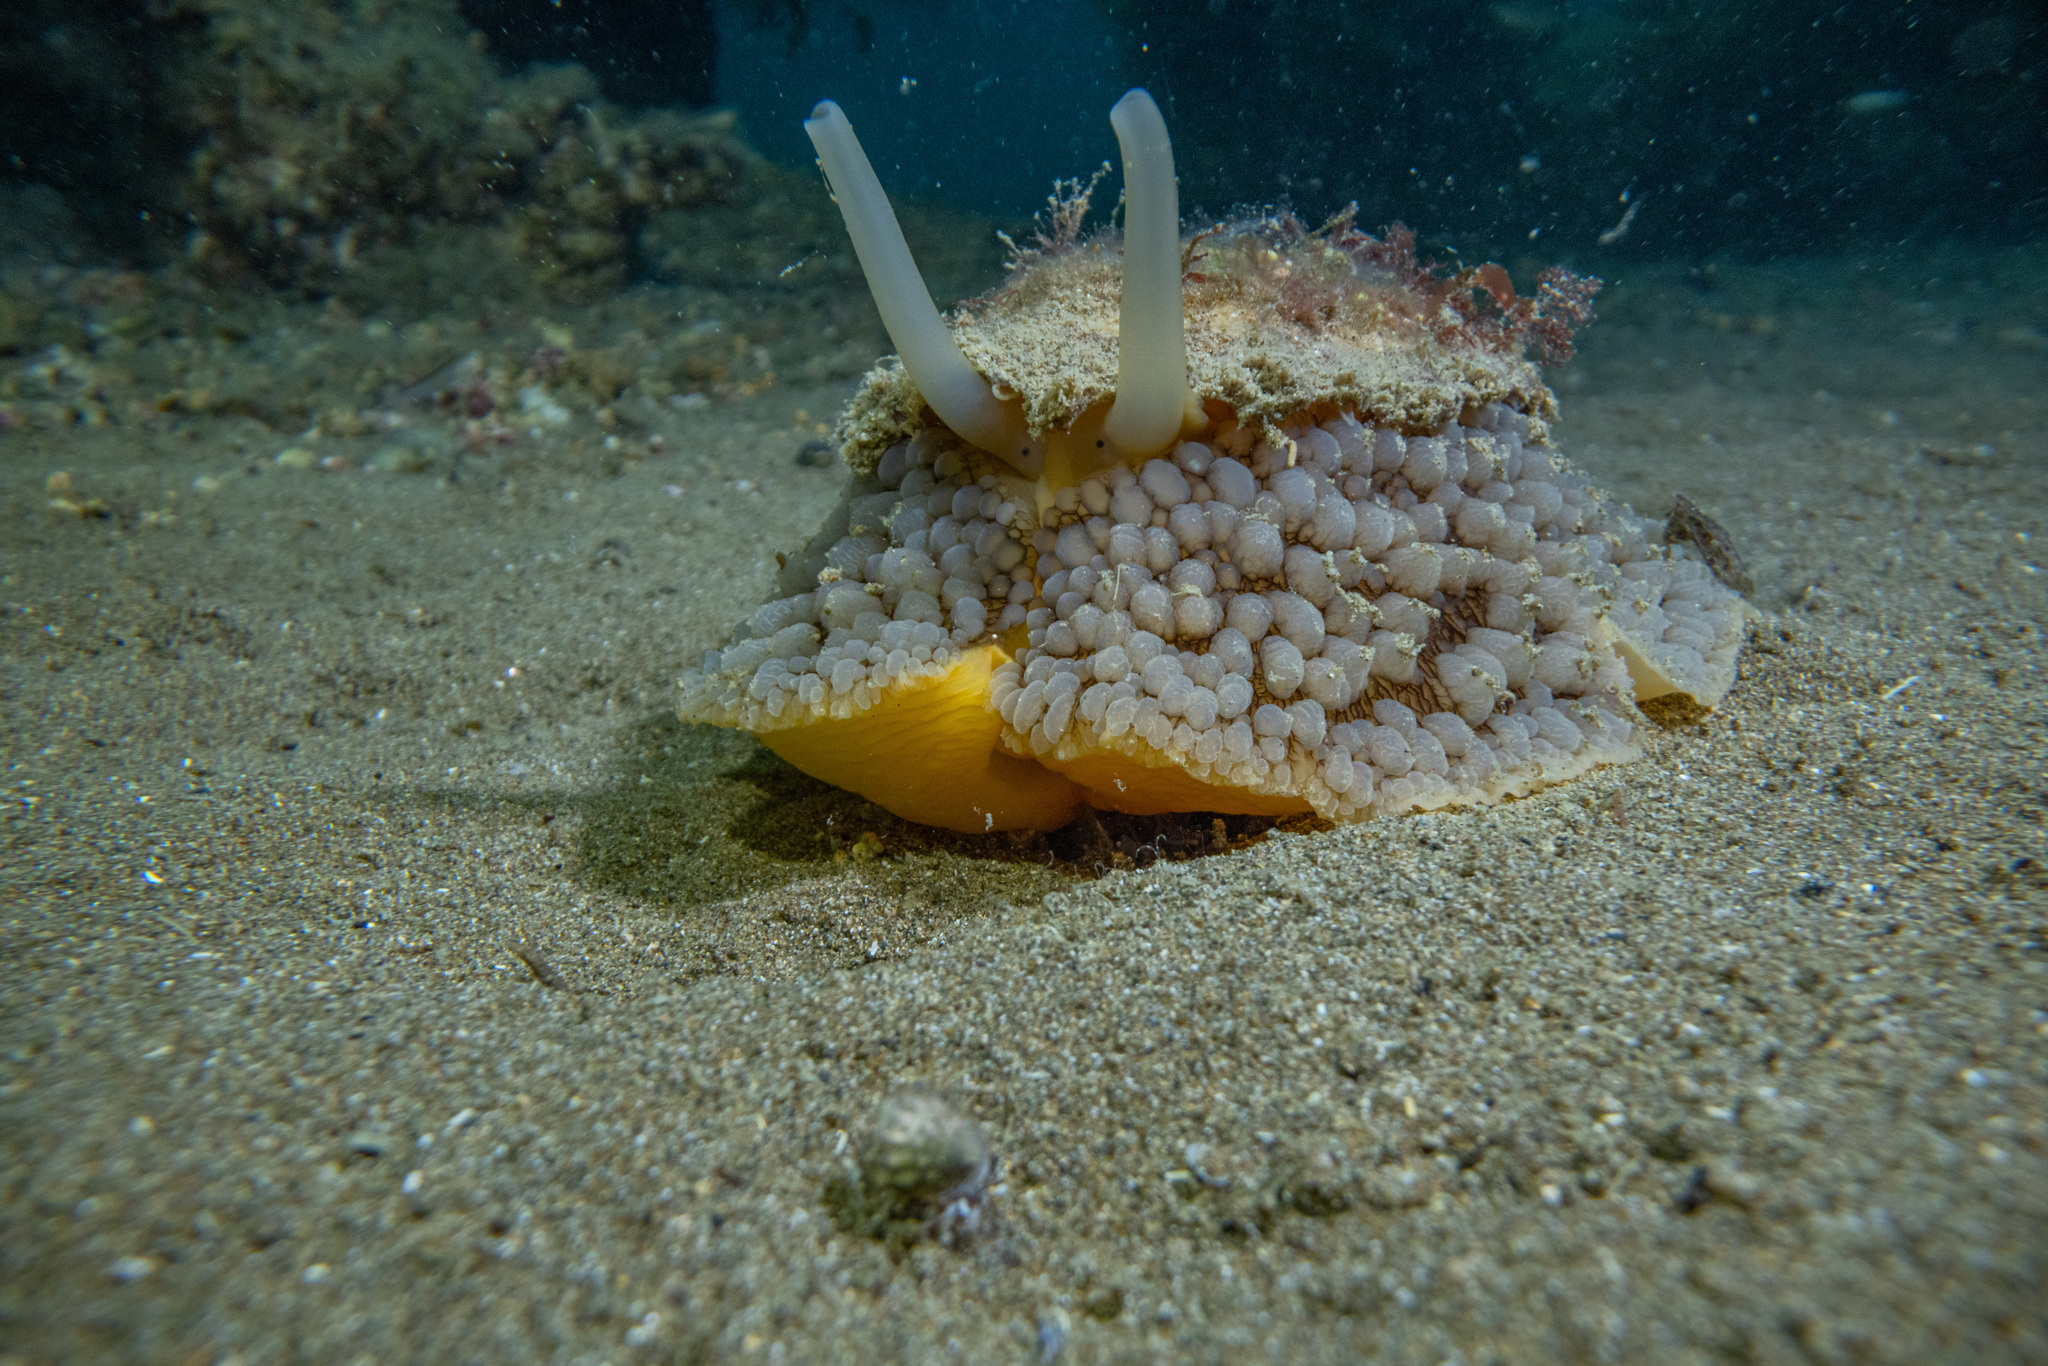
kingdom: Animalia
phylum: Mollusca
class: Gastropoda
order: Umbraculida
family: Umbraculidae
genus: Umbraculum
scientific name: Umbraculum umbraculum
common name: Atlantic umbrella slug
